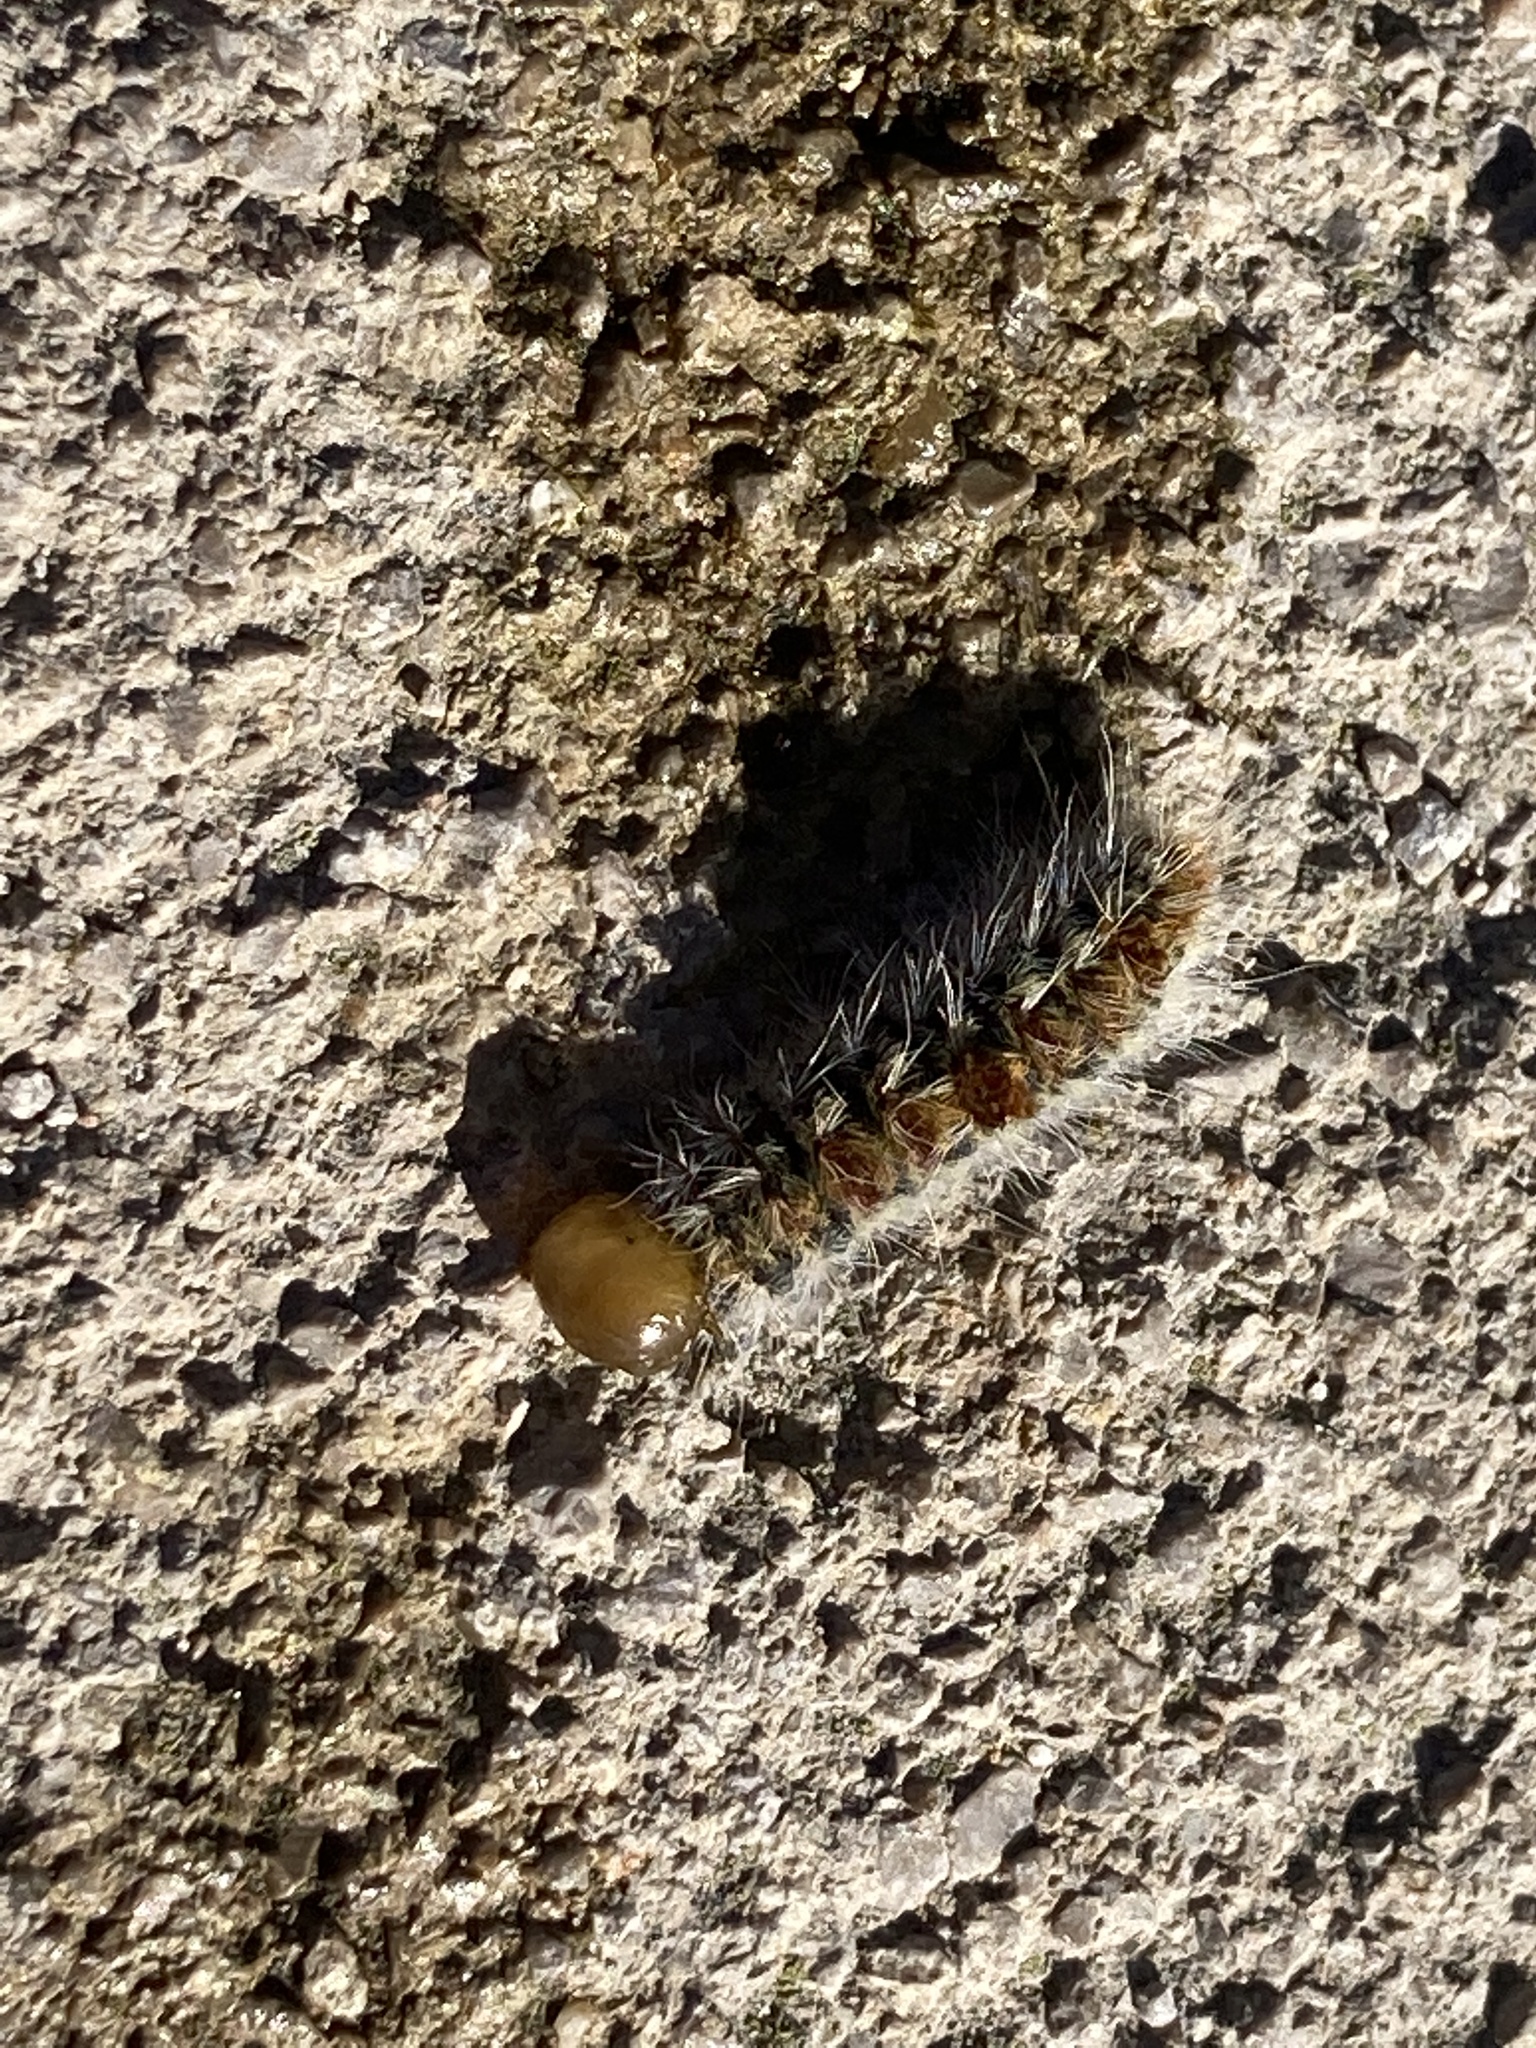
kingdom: Animalia
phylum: Arthropoda
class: Insecta
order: Lepidoptera
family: Notodontidae
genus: Thaumetopoea
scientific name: Thaumetopoea pityocampa
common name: Pine processionary
